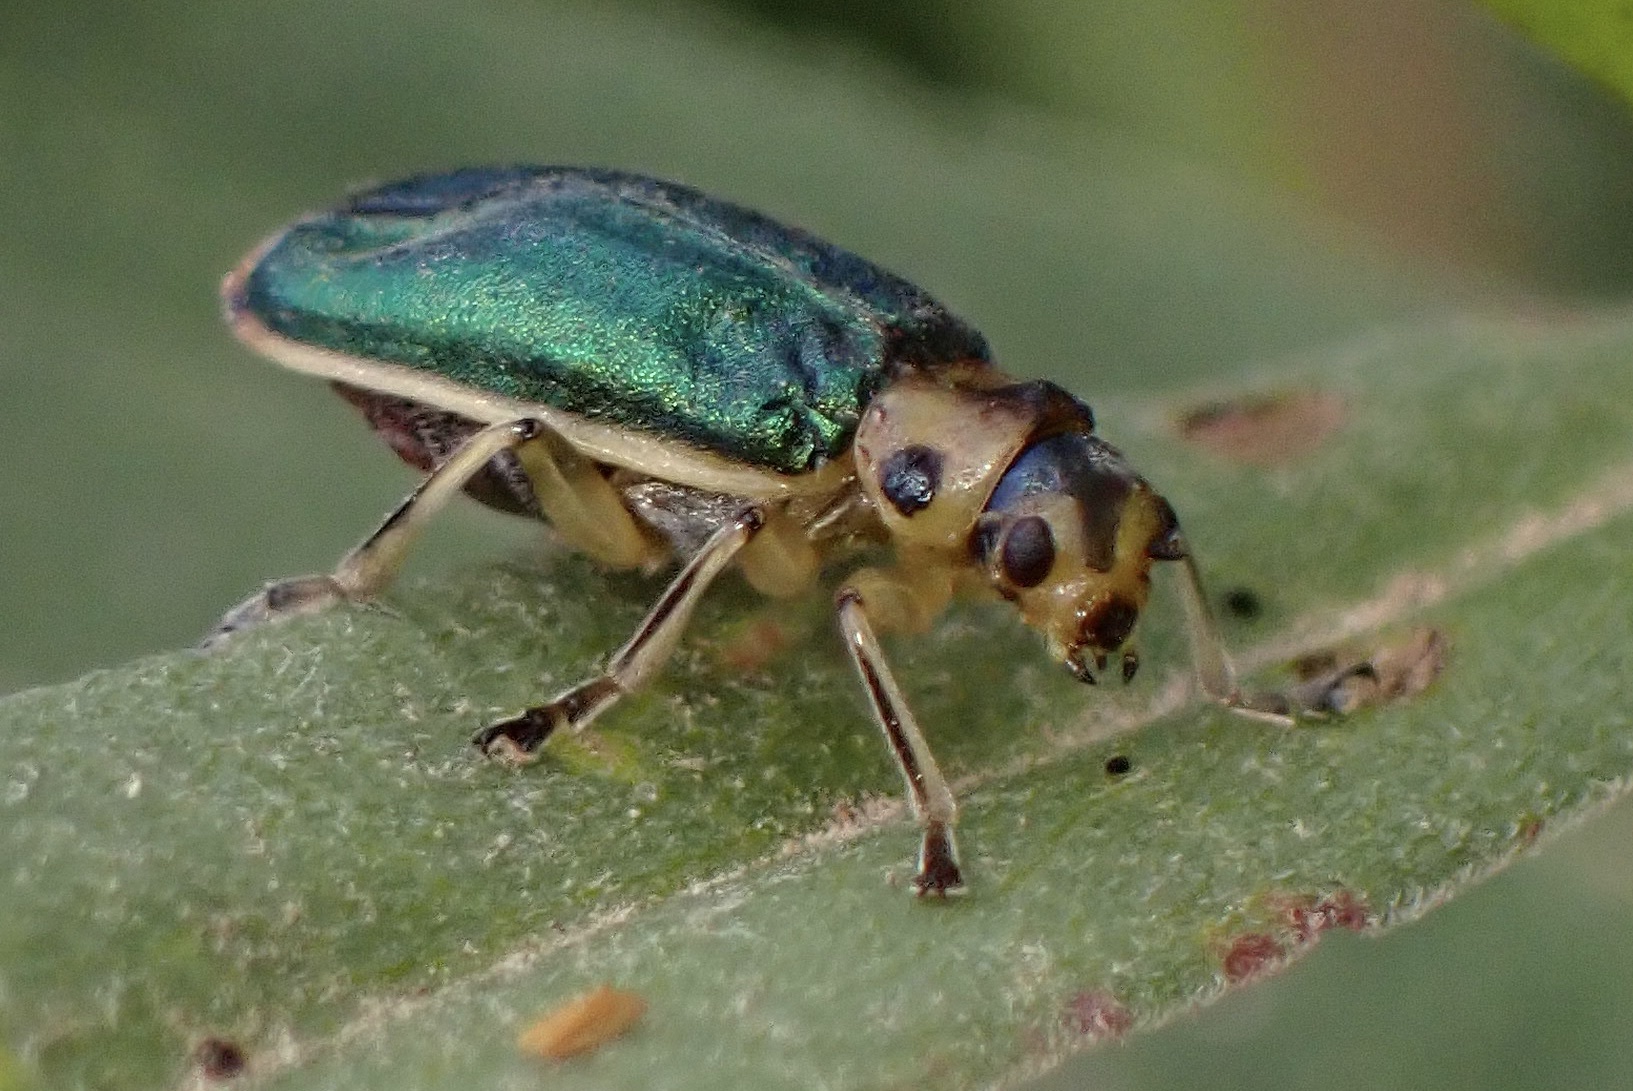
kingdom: Animalia
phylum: Arthropoda
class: Insecta
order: Coleoptera
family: Chrysomelidae
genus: Trirhabda
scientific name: Trirhabda flavolimbata
